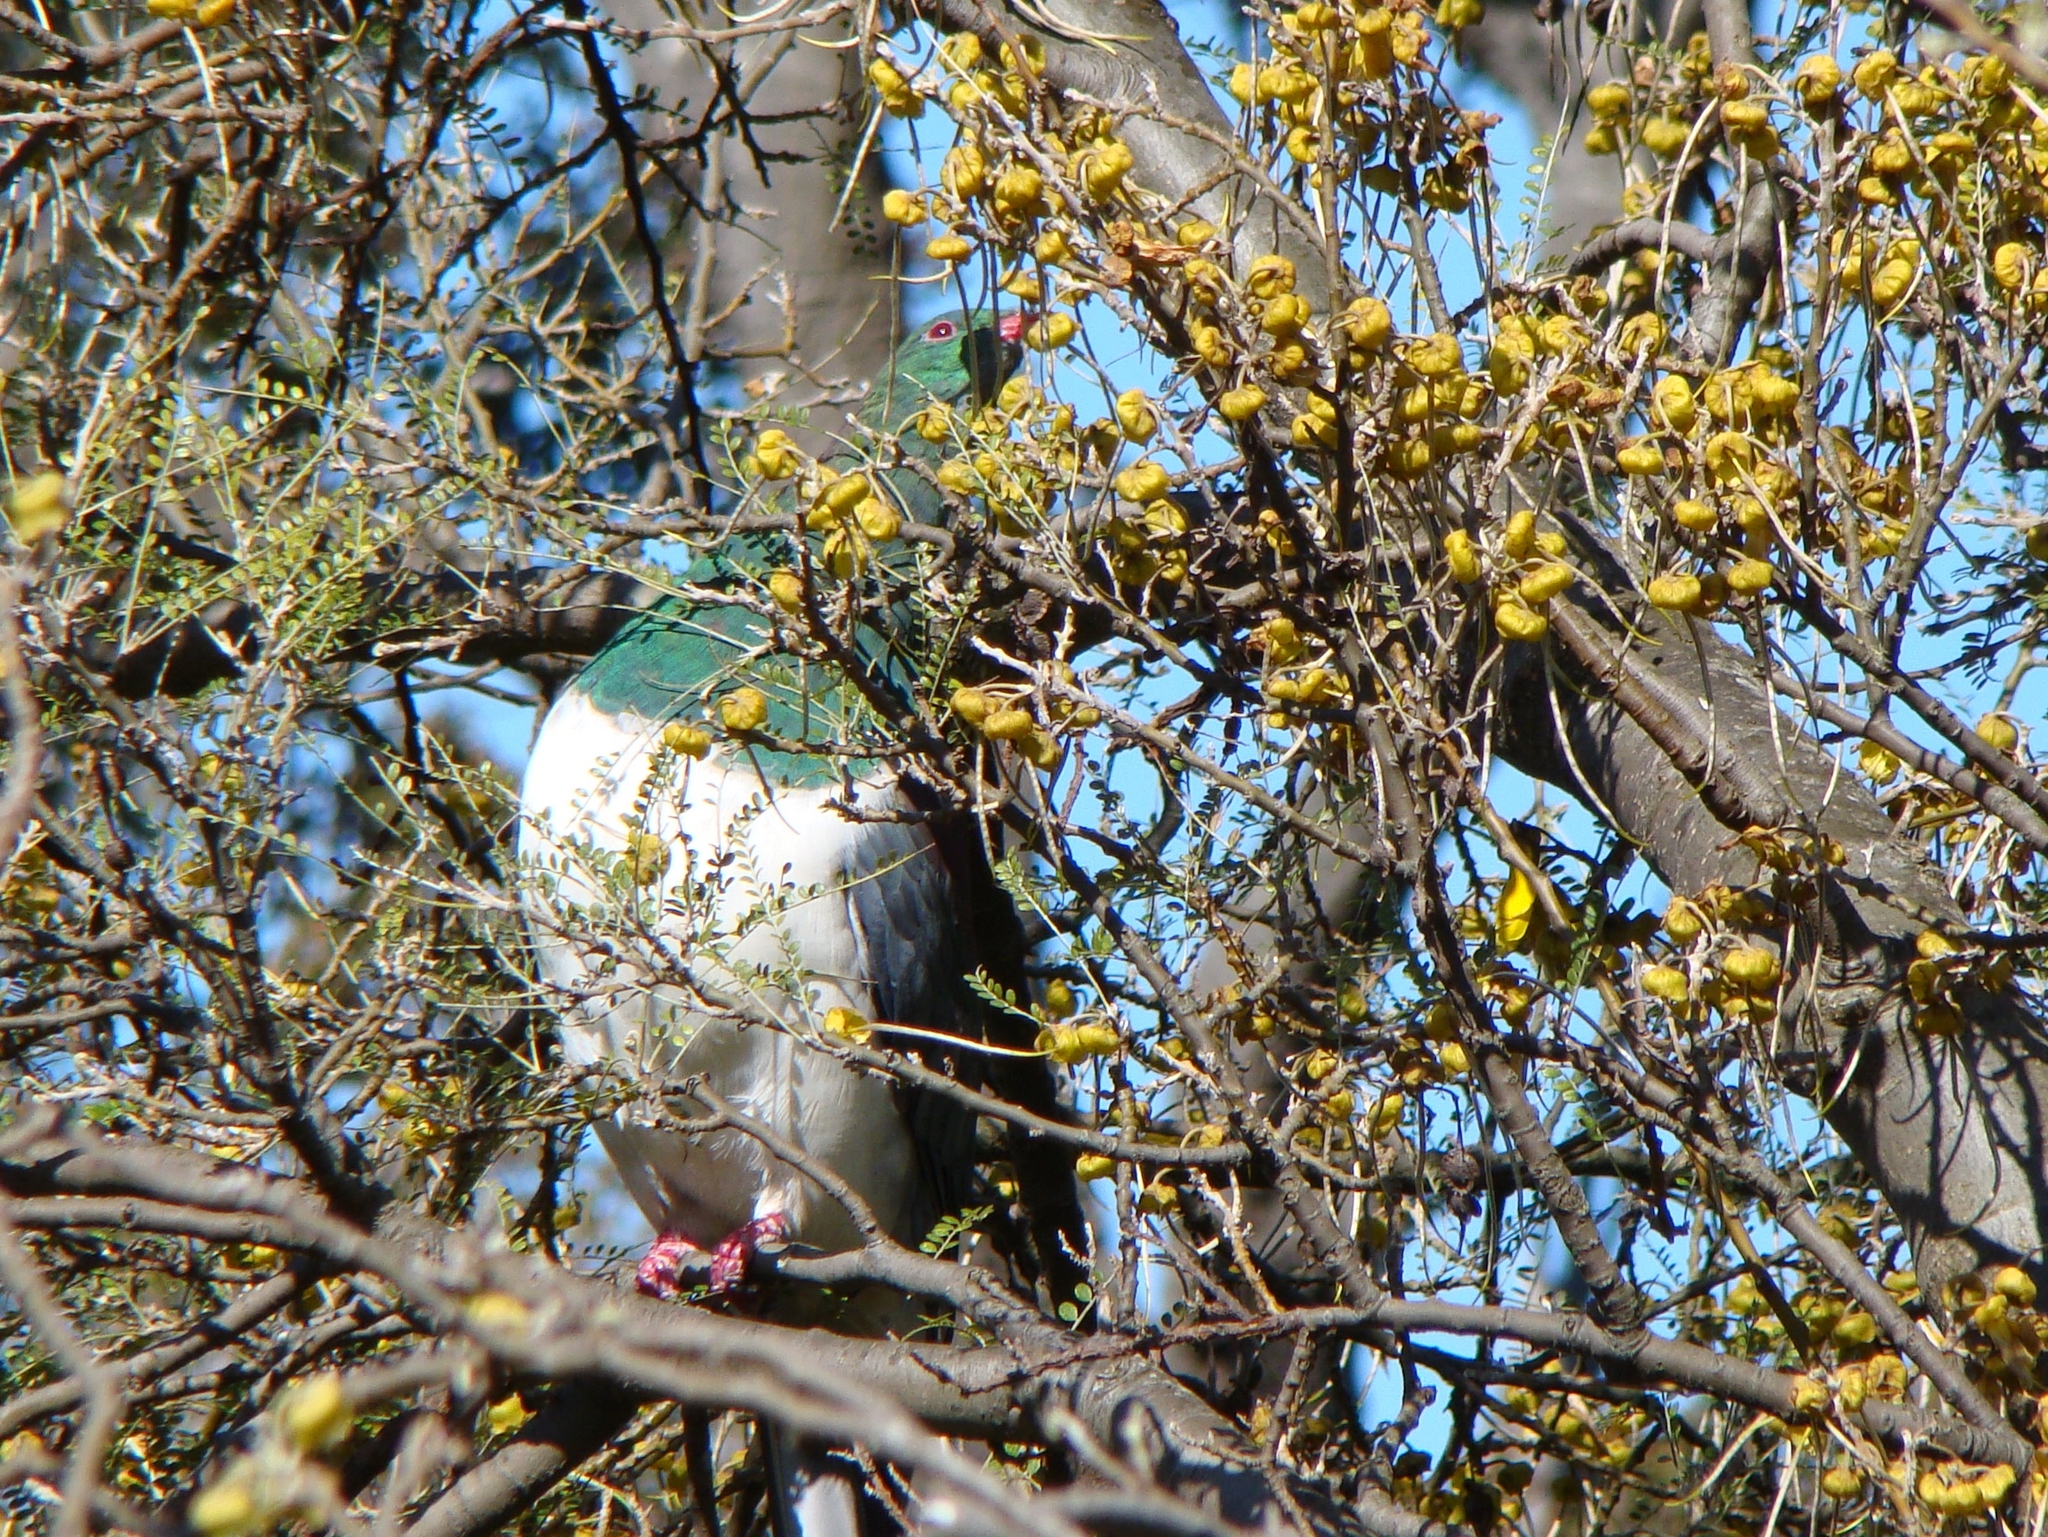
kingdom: Animalia
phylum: Chordata
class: Aves
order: Columbiformes
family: Columbidae
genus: Hemiphaga
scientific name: Hemiphaga novaeseelandiae
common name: New zealand pigeon
